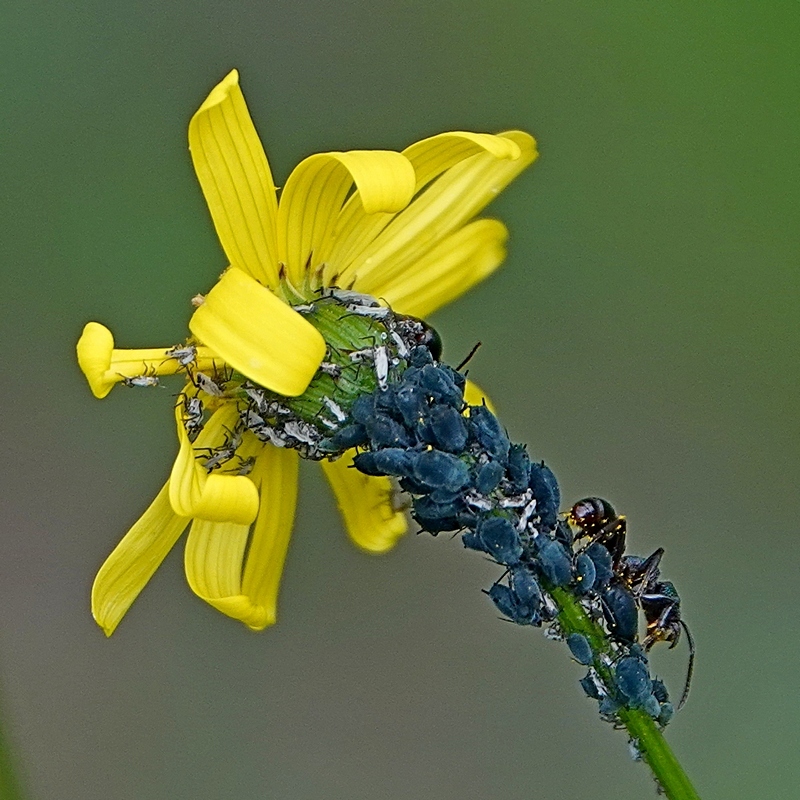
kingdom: Animalia
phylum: Arthropoda
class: Insecta
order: Hymenoptera
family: Formicidae
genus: Rhytidoponera
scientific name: Rhytidoponera metallica
